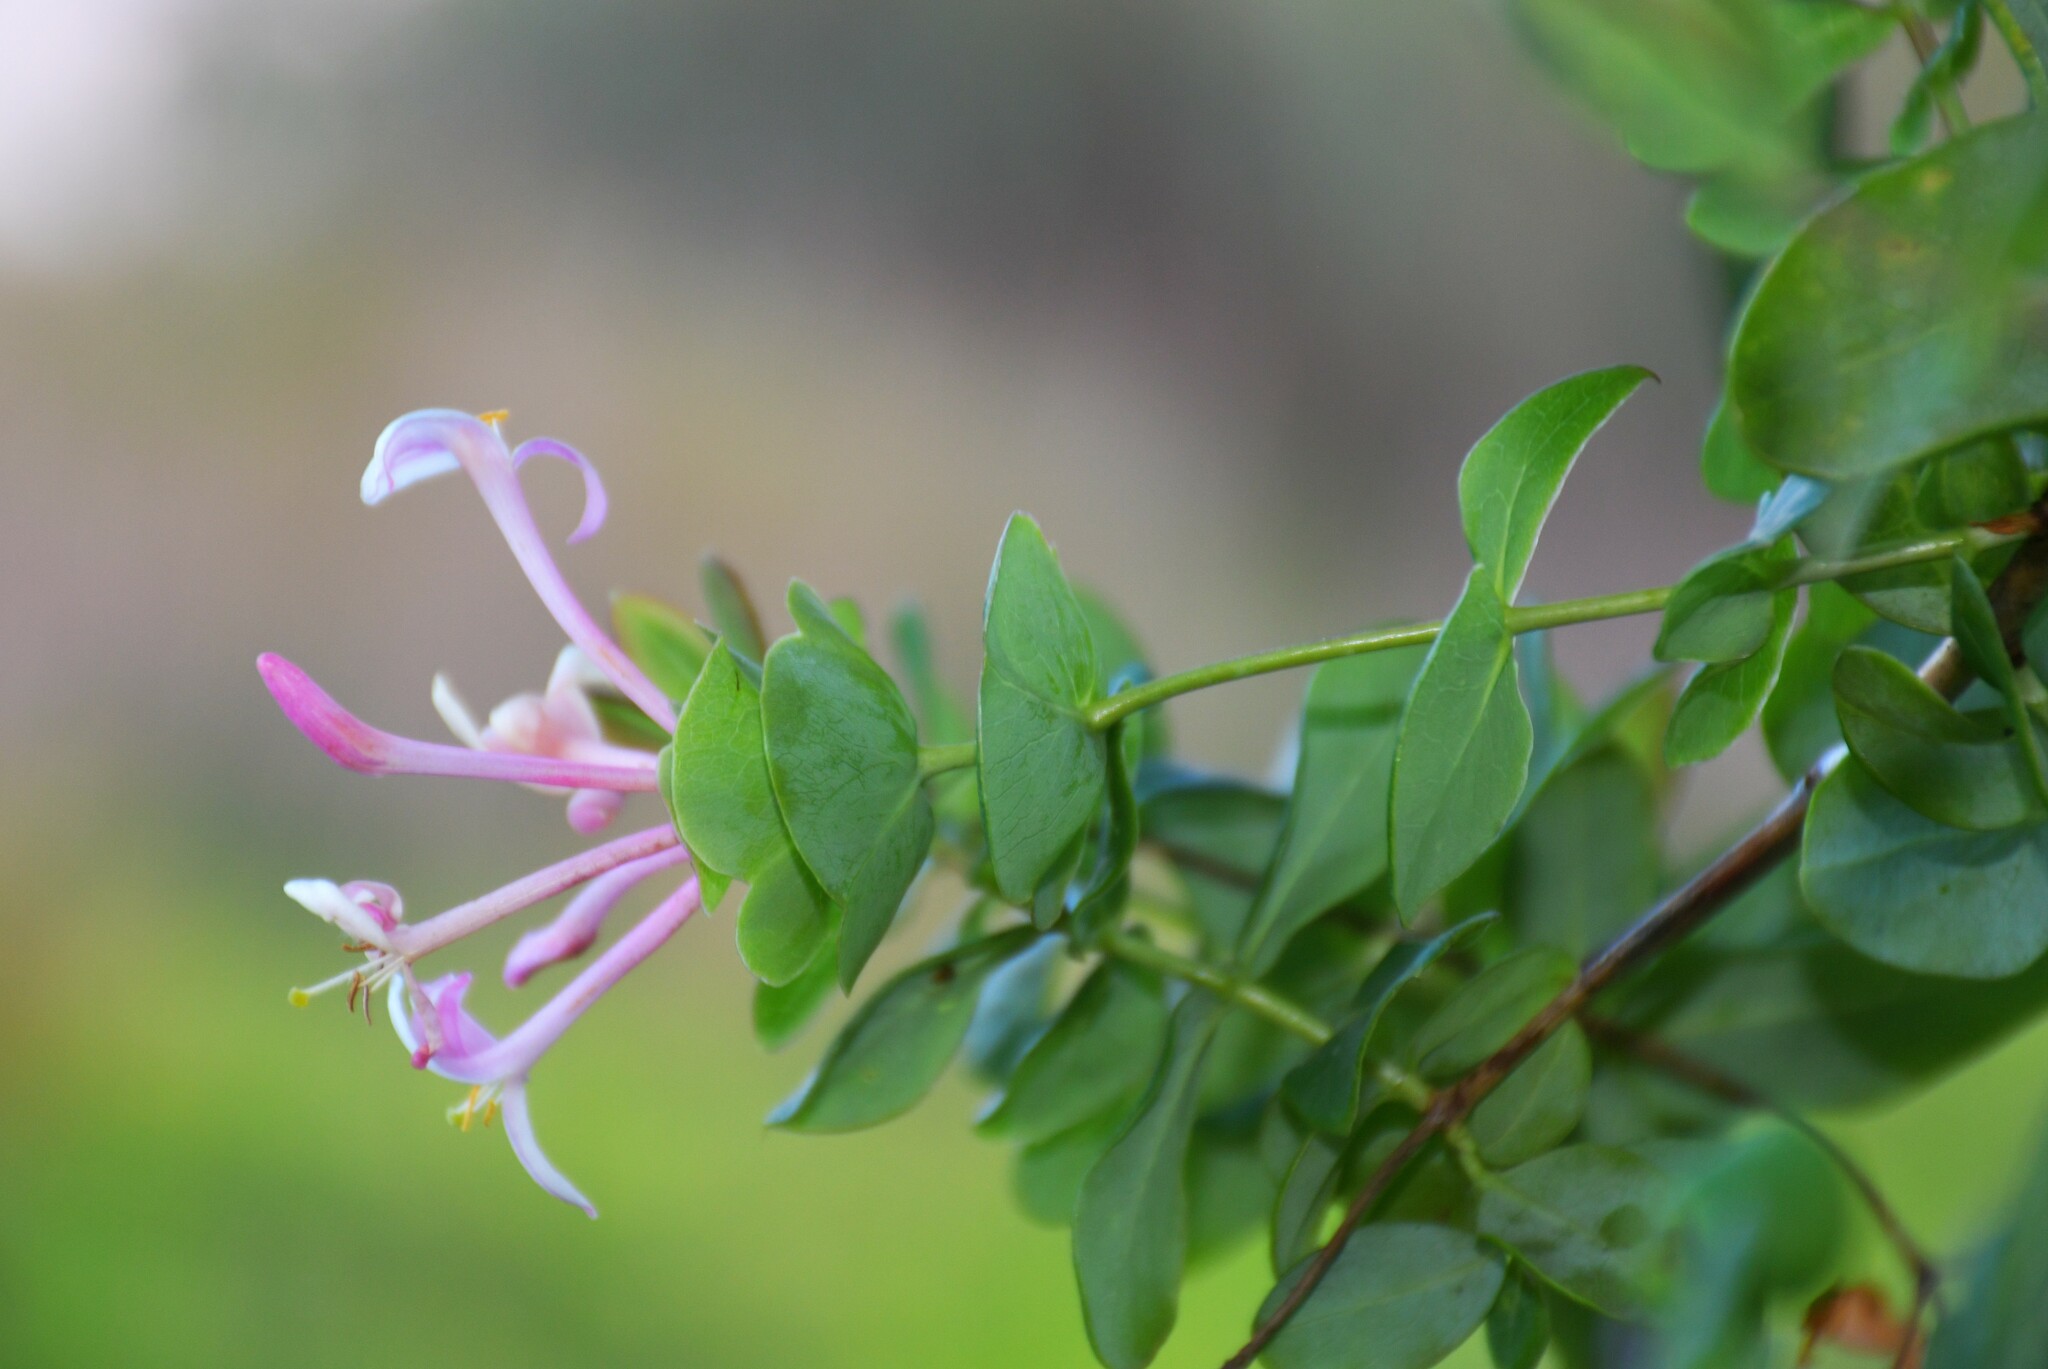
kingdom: Plantae
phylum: Tracheophyta
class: Magnoliopsida
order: Dipsacales
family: Caprifoliaceae
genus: Lonicera
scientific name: Lonicera implexa
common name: Minorca honeysuckle
